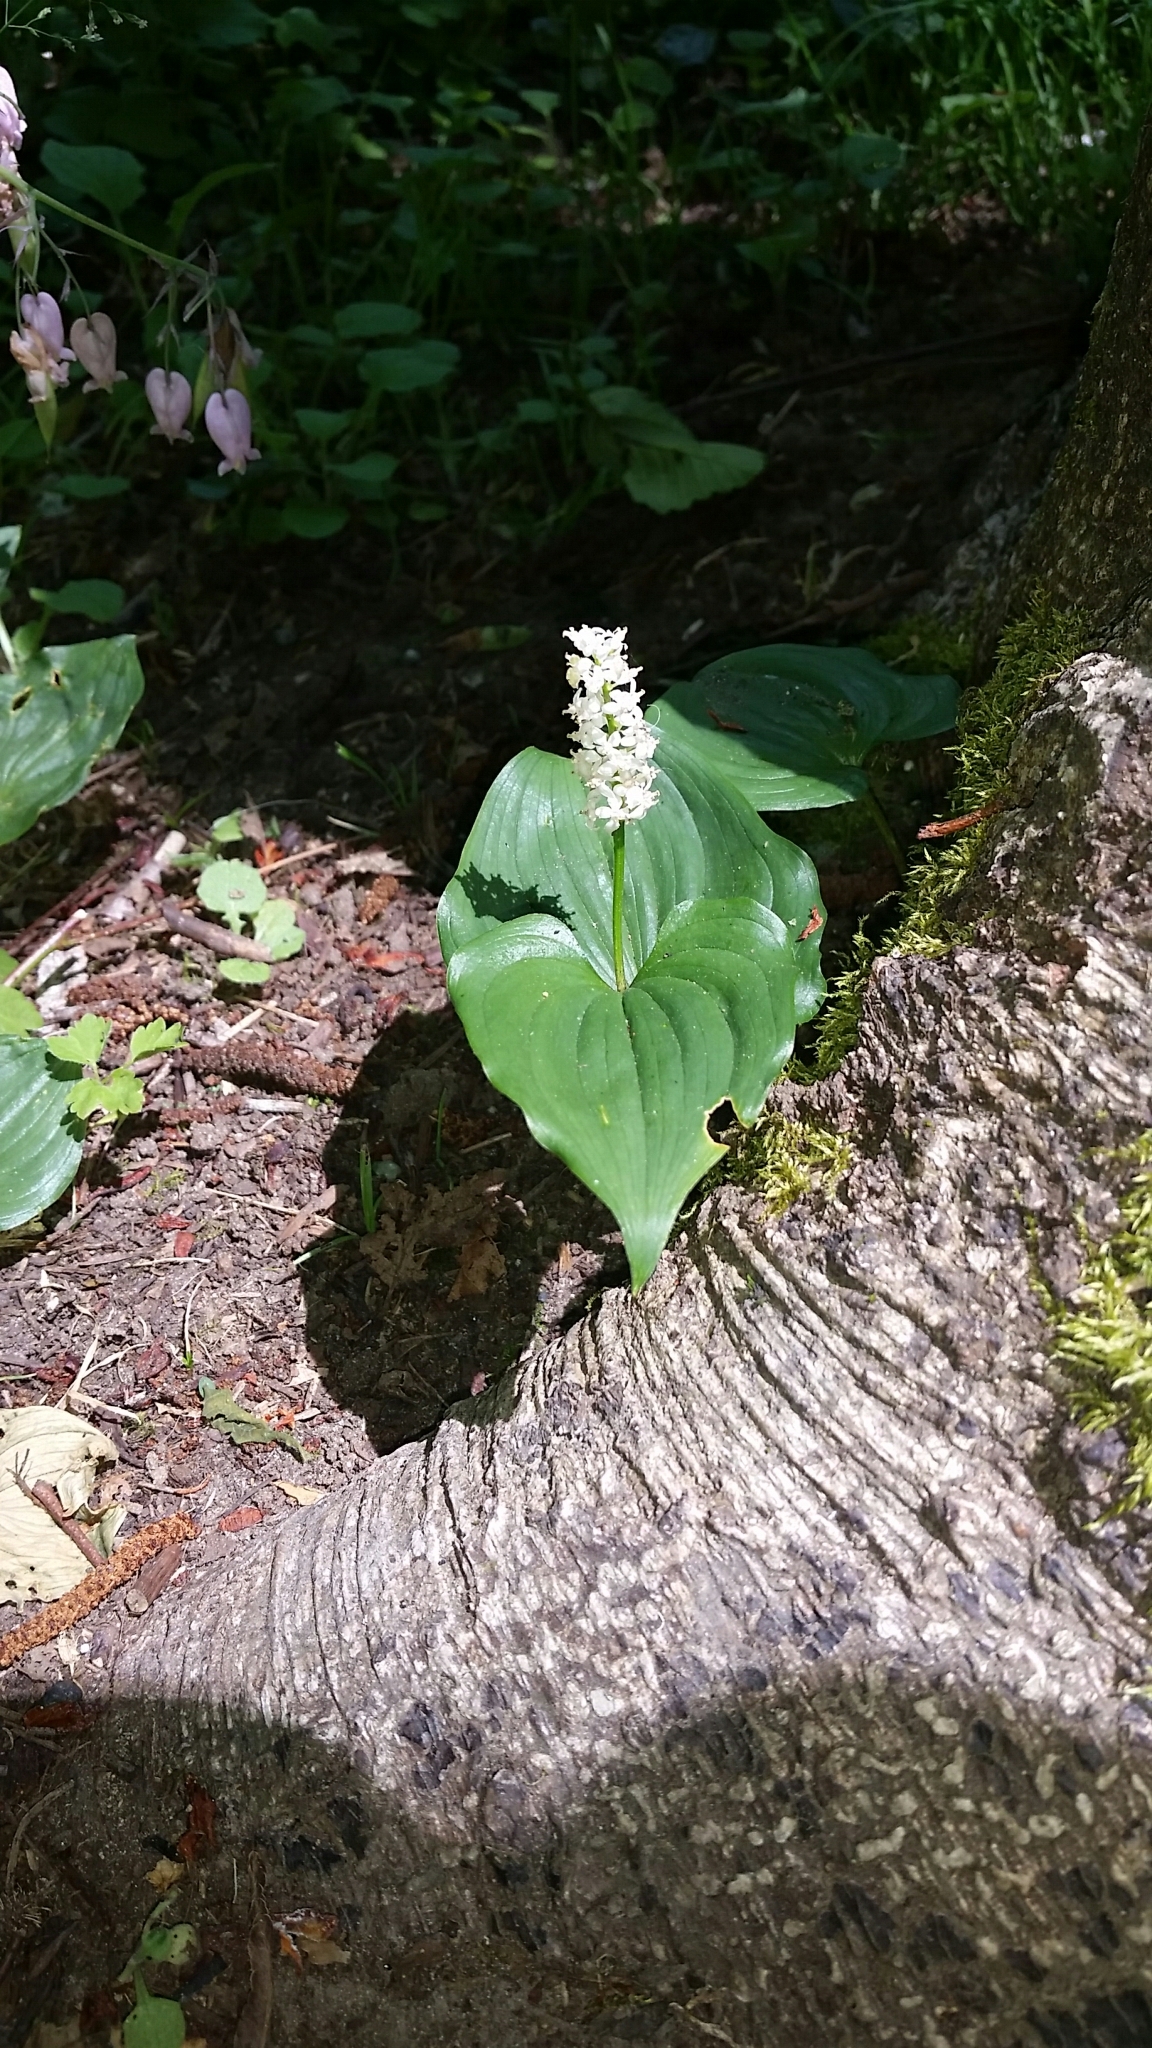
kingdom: Plantae
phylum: Tracheophyta
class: Liliopsida
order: Asparagales
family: Asparagaceae
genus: Maianthemum
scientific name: Maianthemum dilatatum
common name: False lily-of-the-valley
